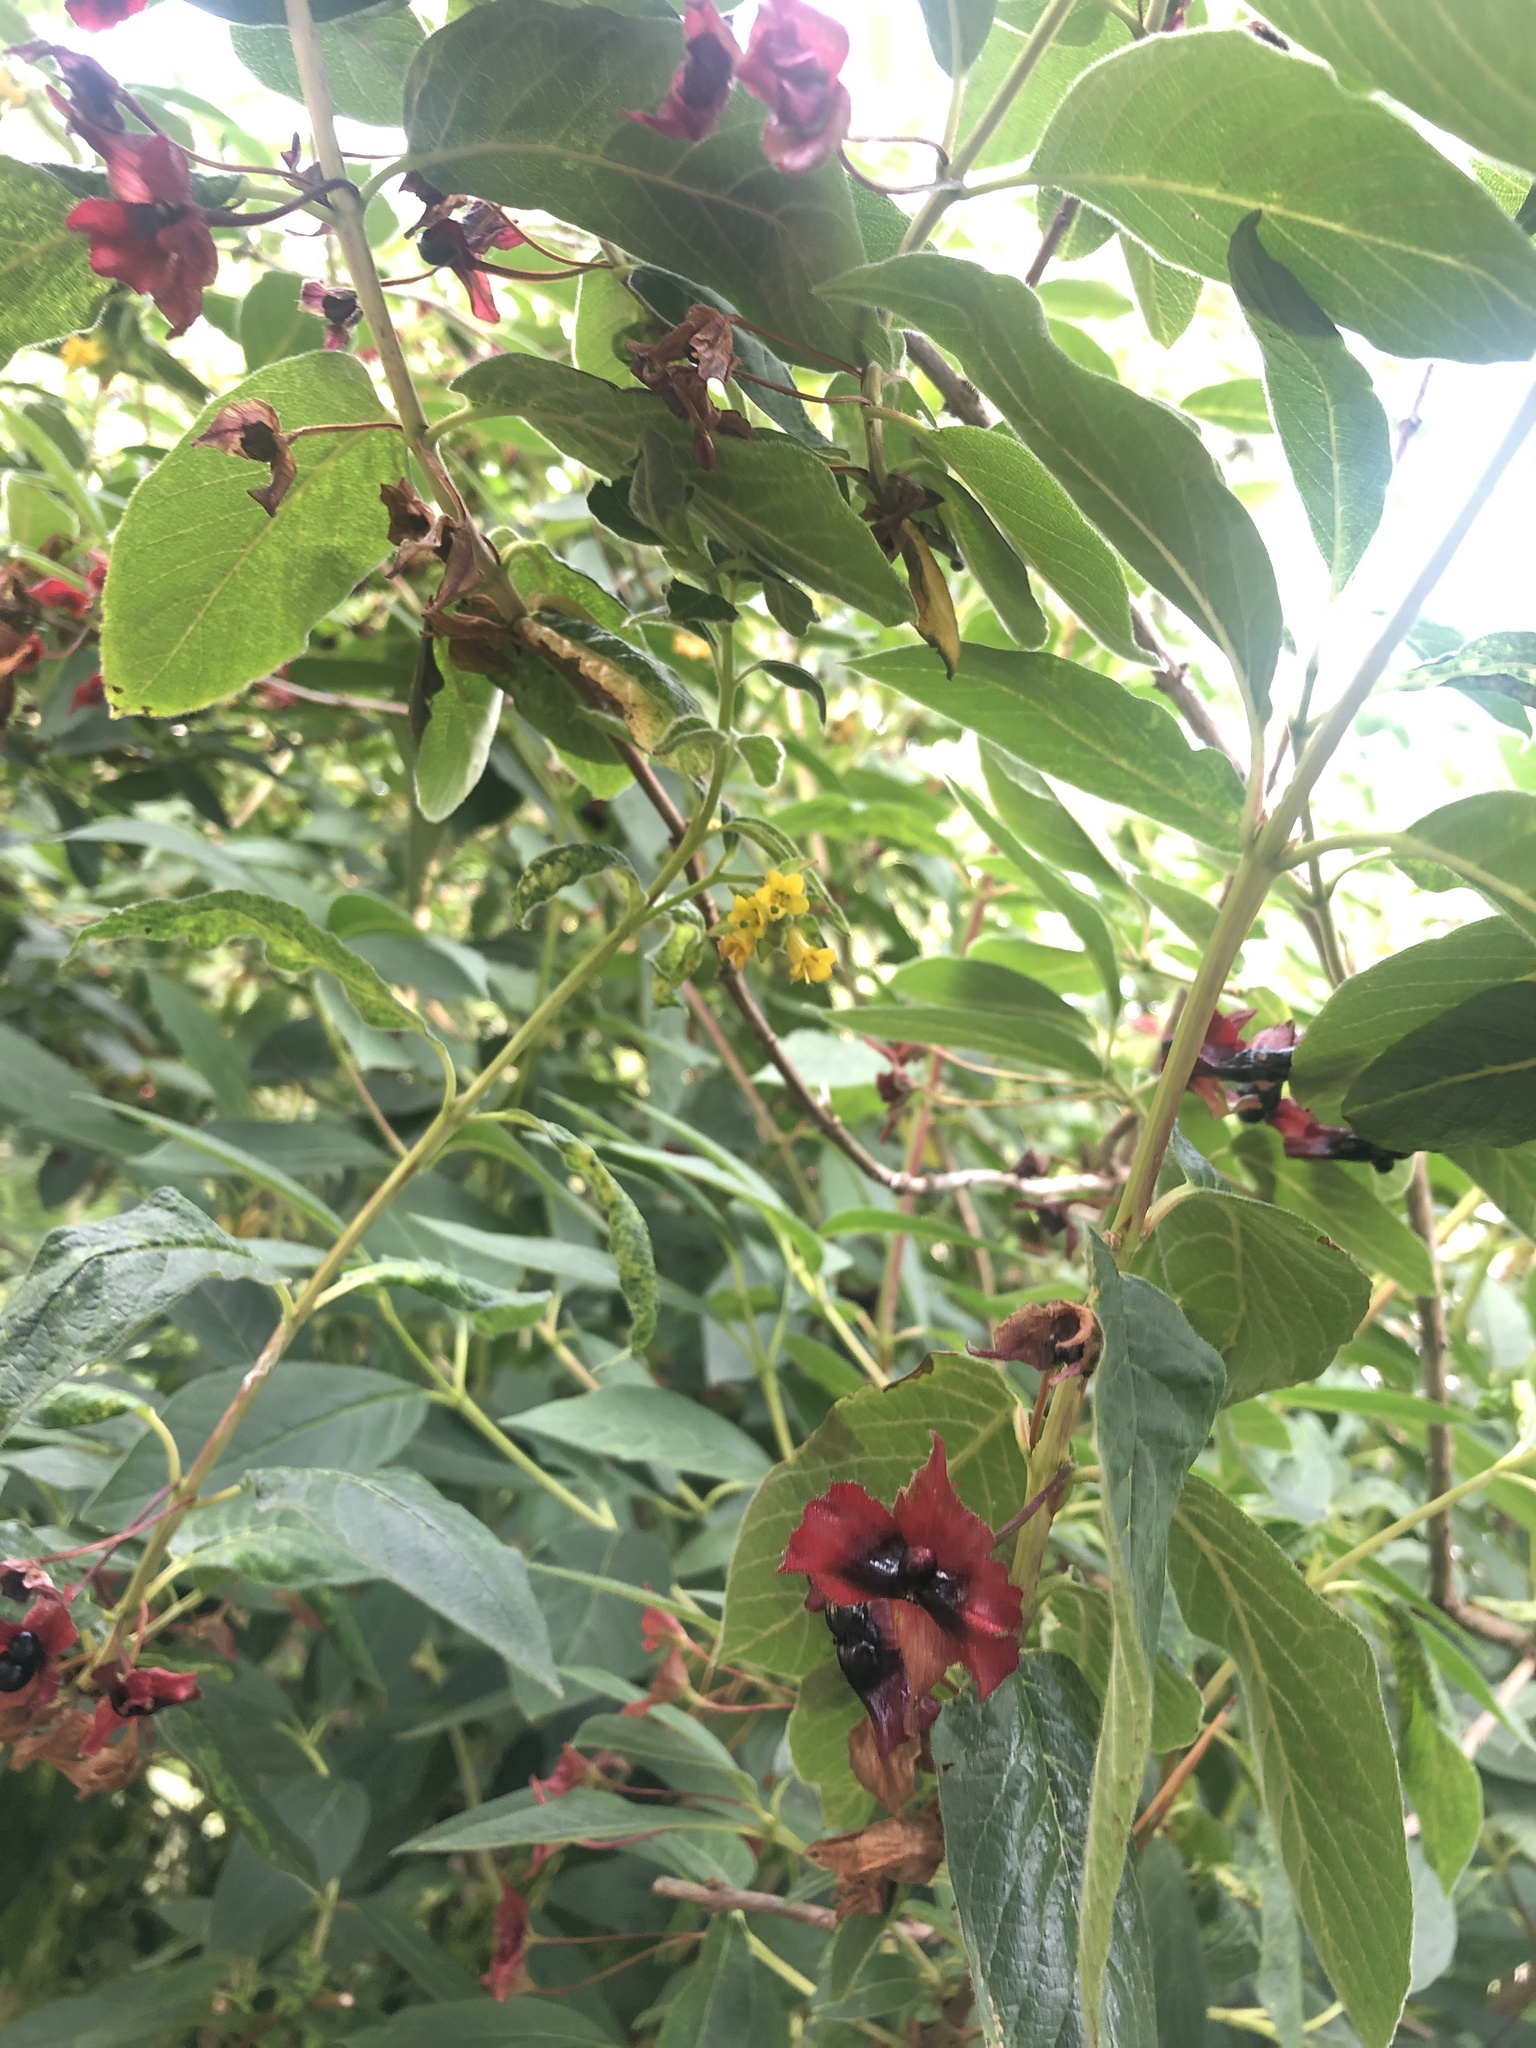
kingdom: Plantae
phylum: Tracheophyta
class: Magnoliopsida
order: Dipsacales
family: Caprifoliaceae
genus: Lonicera
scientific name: Lonicera involucrata
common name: Californian honeysuckle
